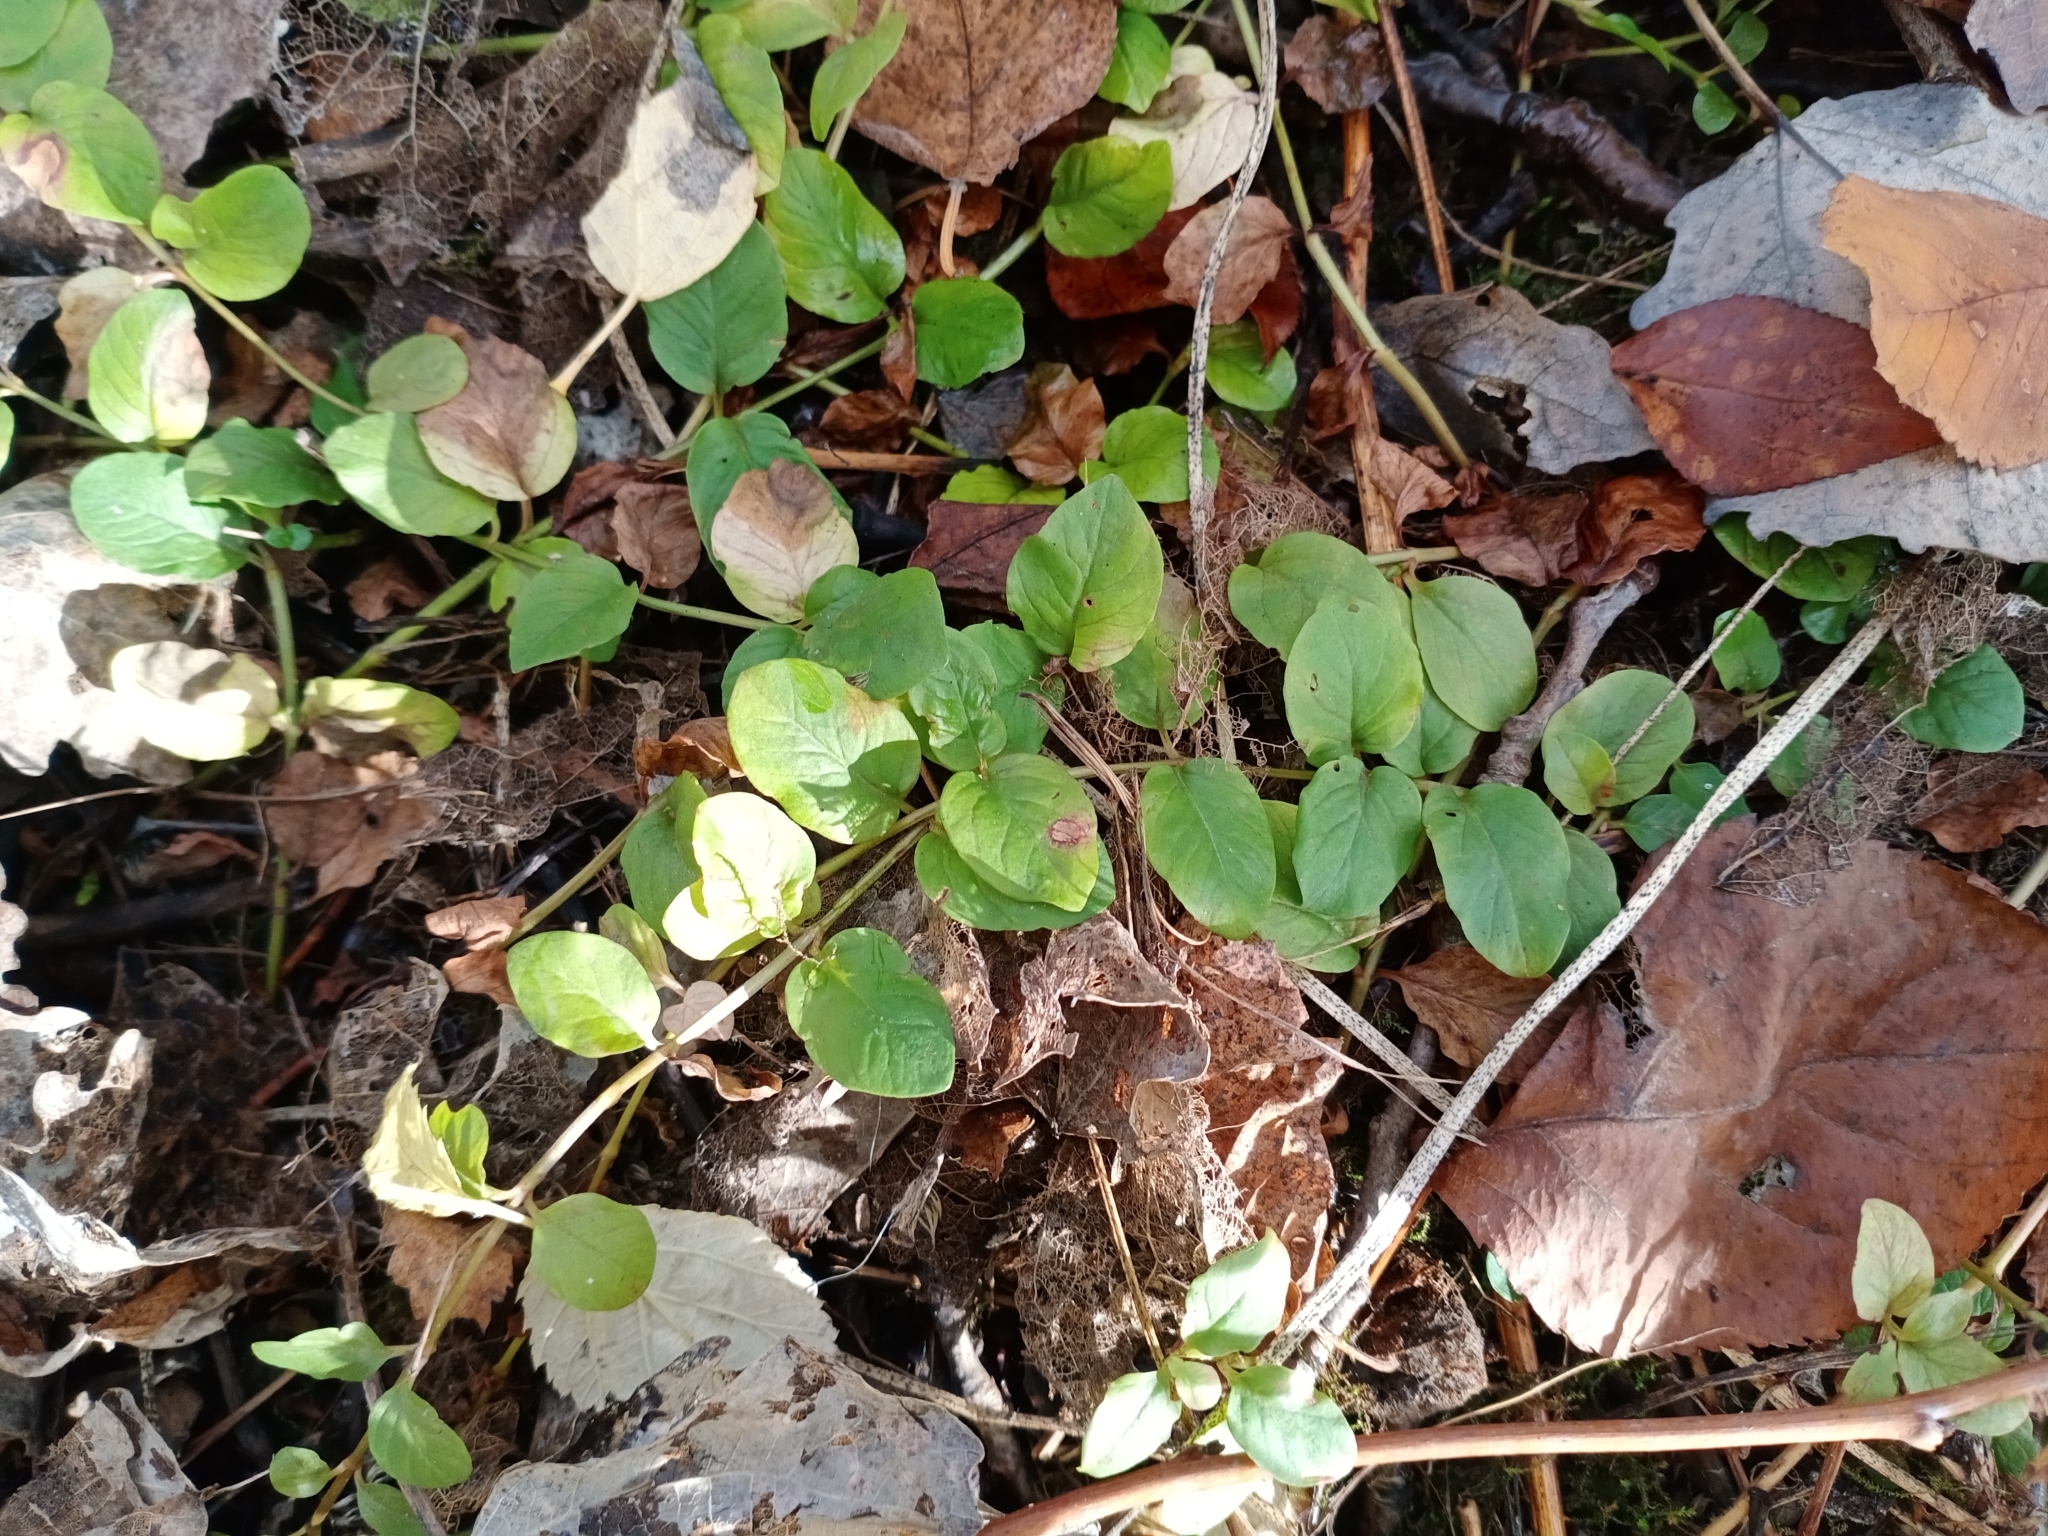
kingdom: Plantae
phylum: Tracheophyta
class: Magnoliopsida
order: Ericales
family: Primulaceae
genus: Lysimachia
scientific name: Lysimachia nummularia
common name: Moneywort
